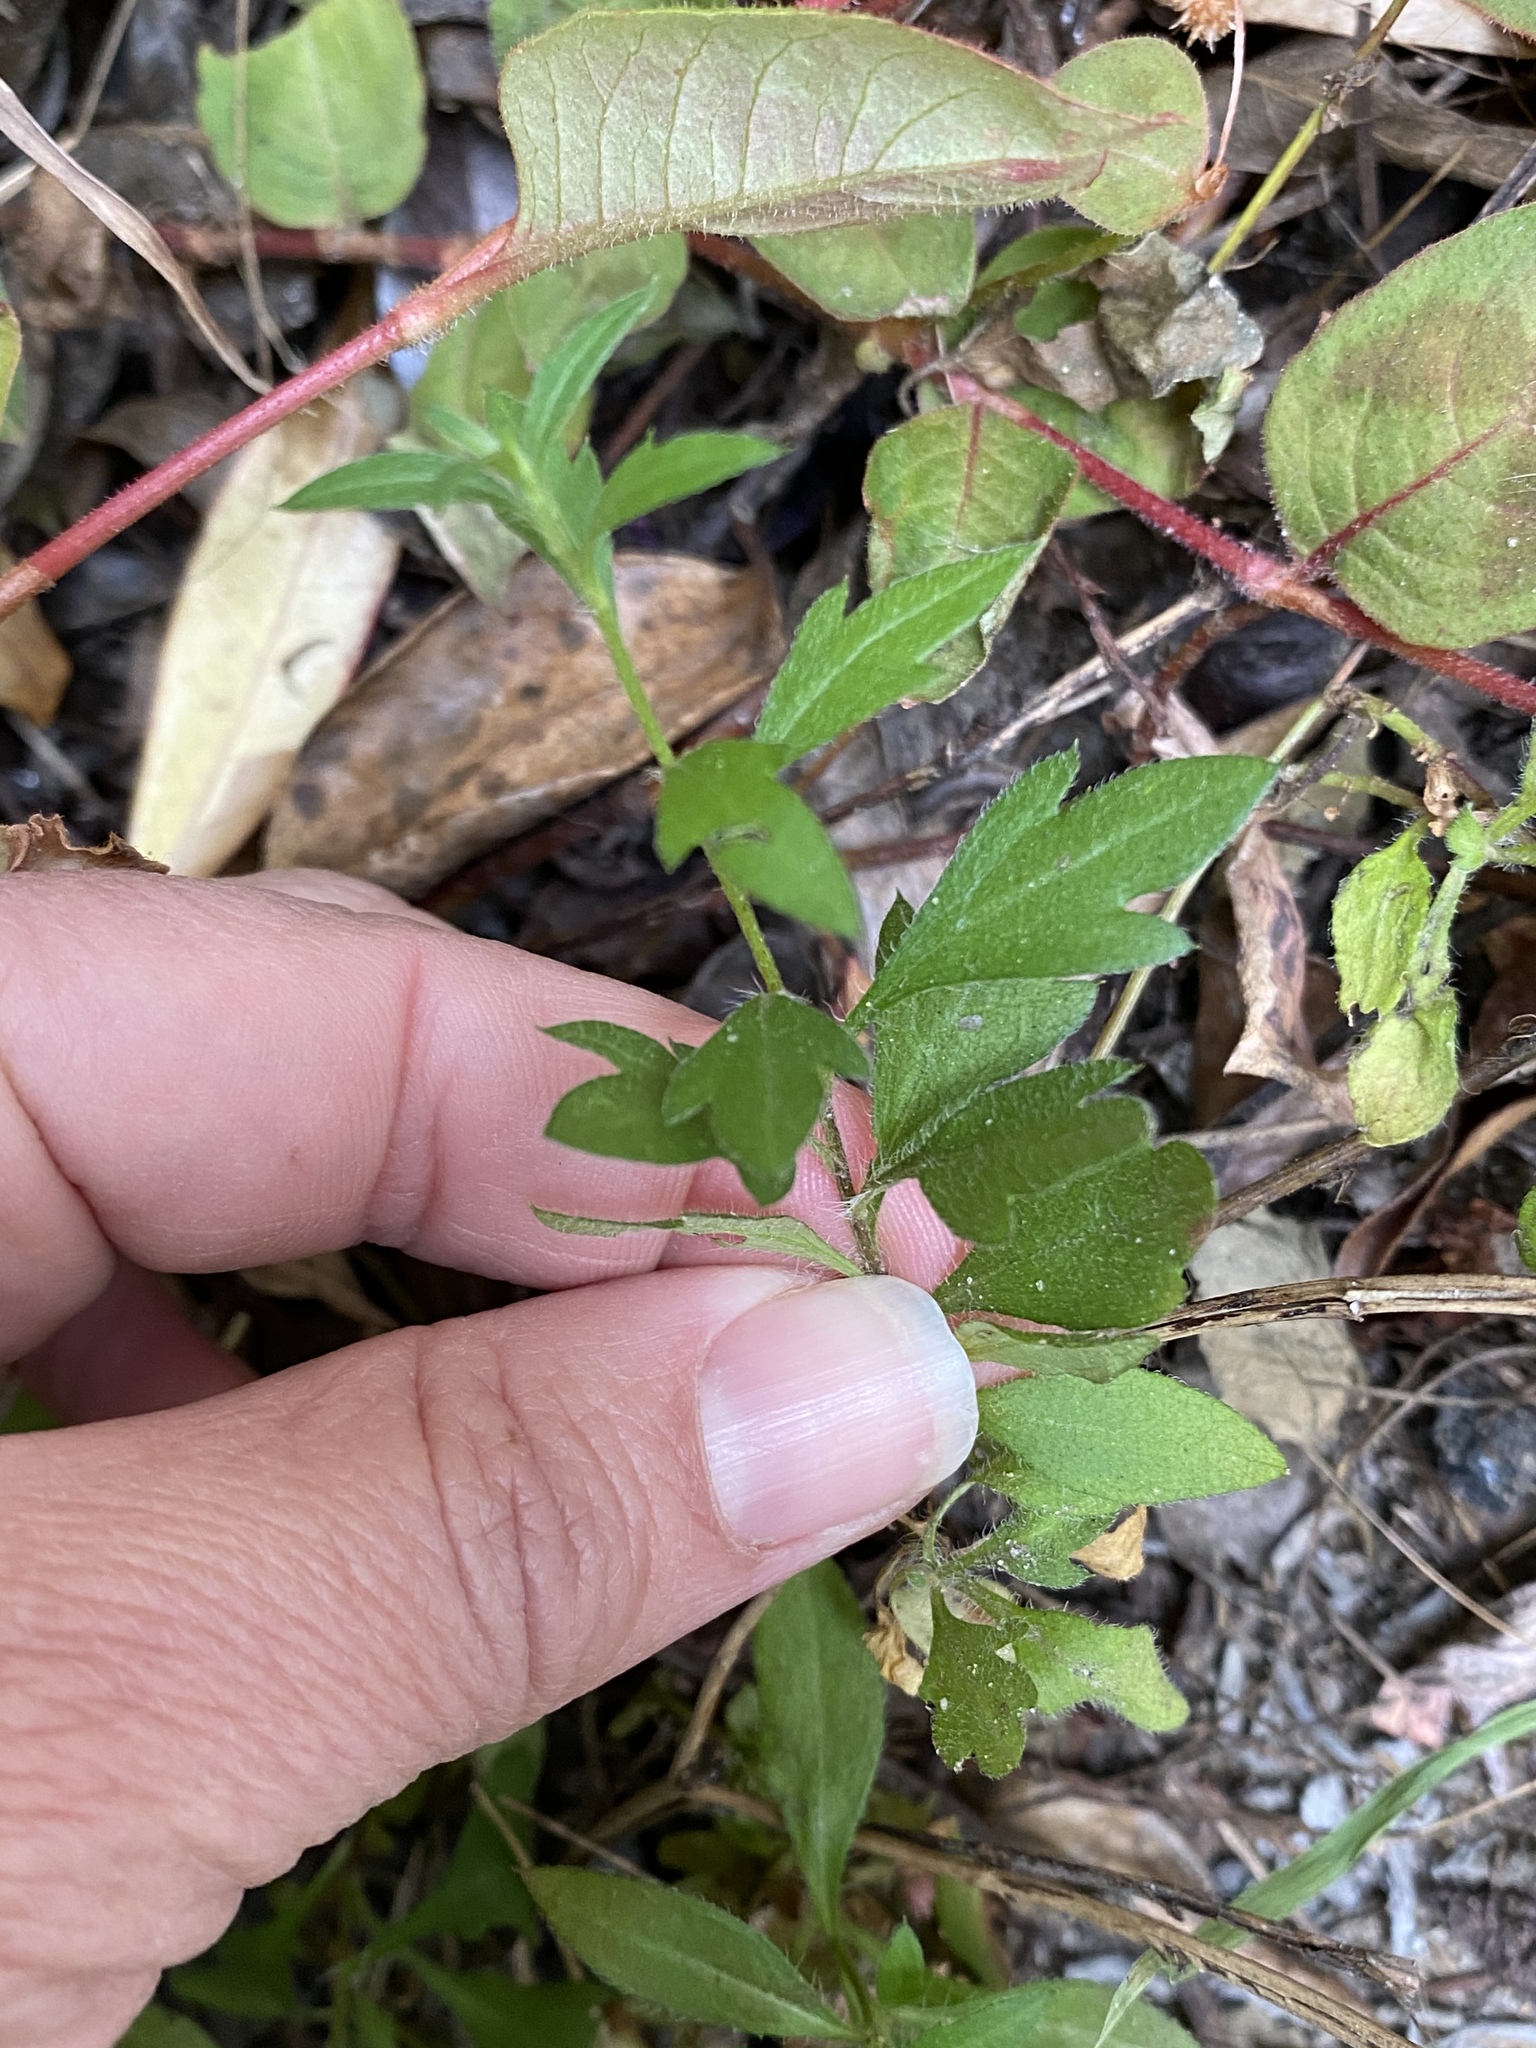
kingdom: Plantae
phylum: Tracheophyta
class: Magnoliopsida
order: Asterales
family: Asteraceae
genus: Erigeron
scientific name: Erigeron karvinskianus
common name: Mexican fleabane
